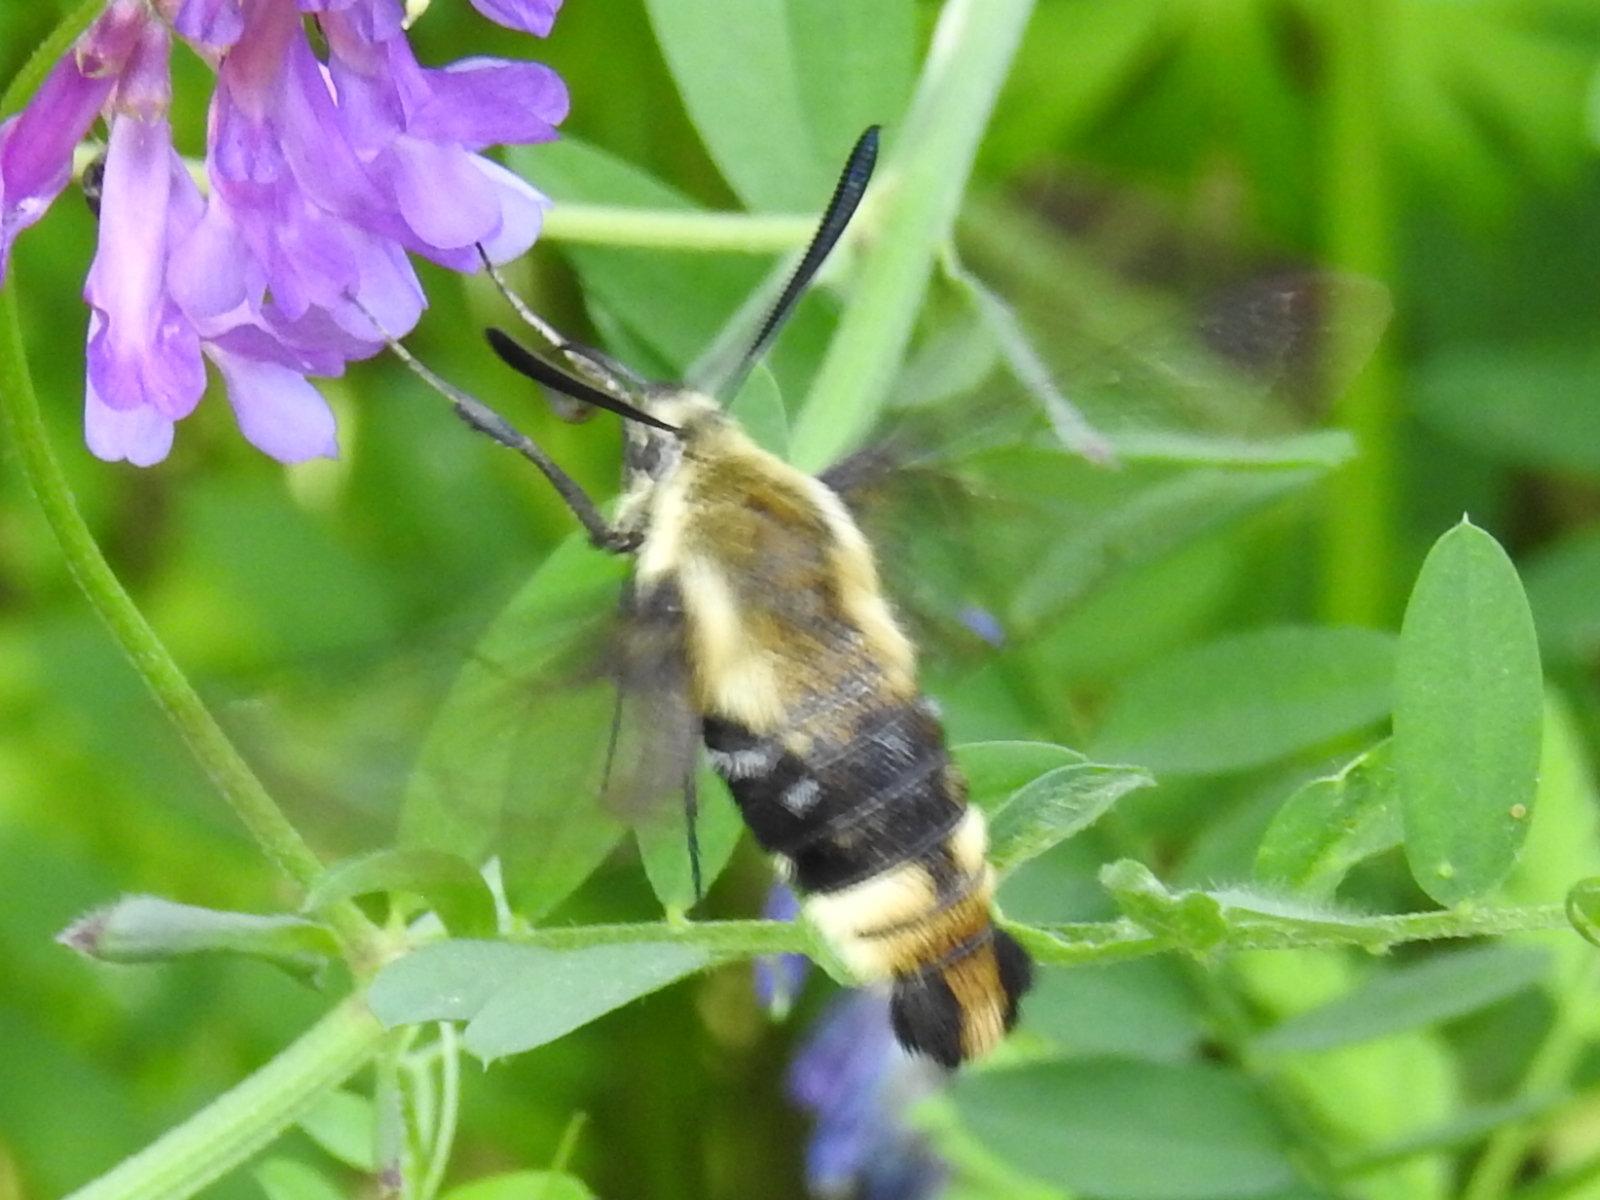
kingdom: Animalia
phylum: Arthropoda
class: Insecta
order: Lepidoptera
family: Sphingidae
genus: Hemaris
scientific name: Hemaris diffinis
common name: Bumblebee moth
